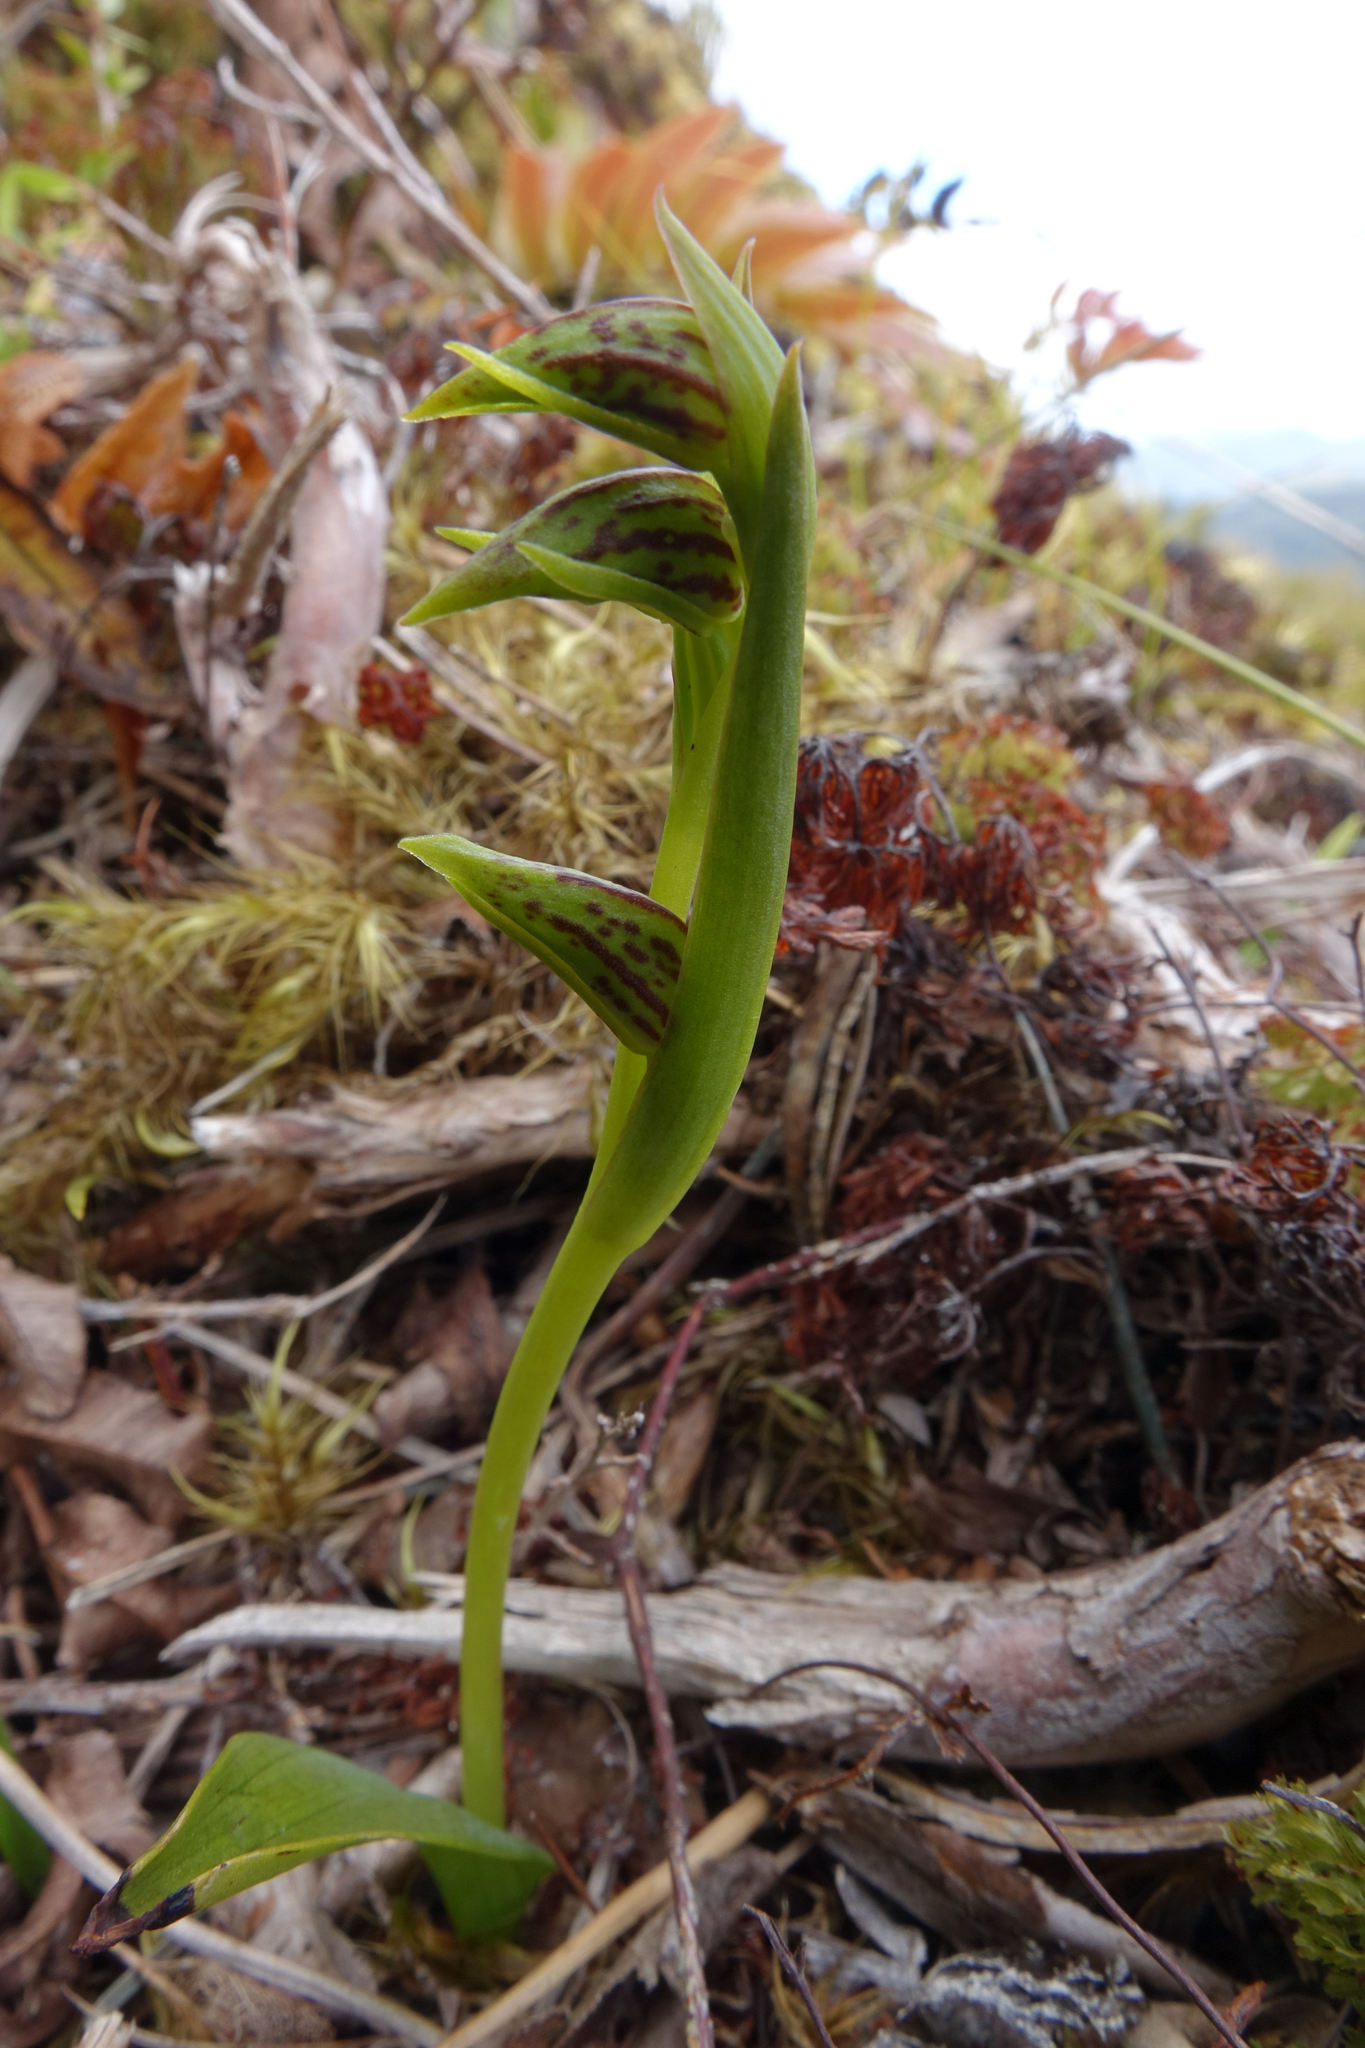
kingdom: Plantae
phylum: Tracheophyta
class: Liliopsida
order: Asparagales
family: Orchidaceae
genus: Waireia
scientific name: Waireia stenopetala
